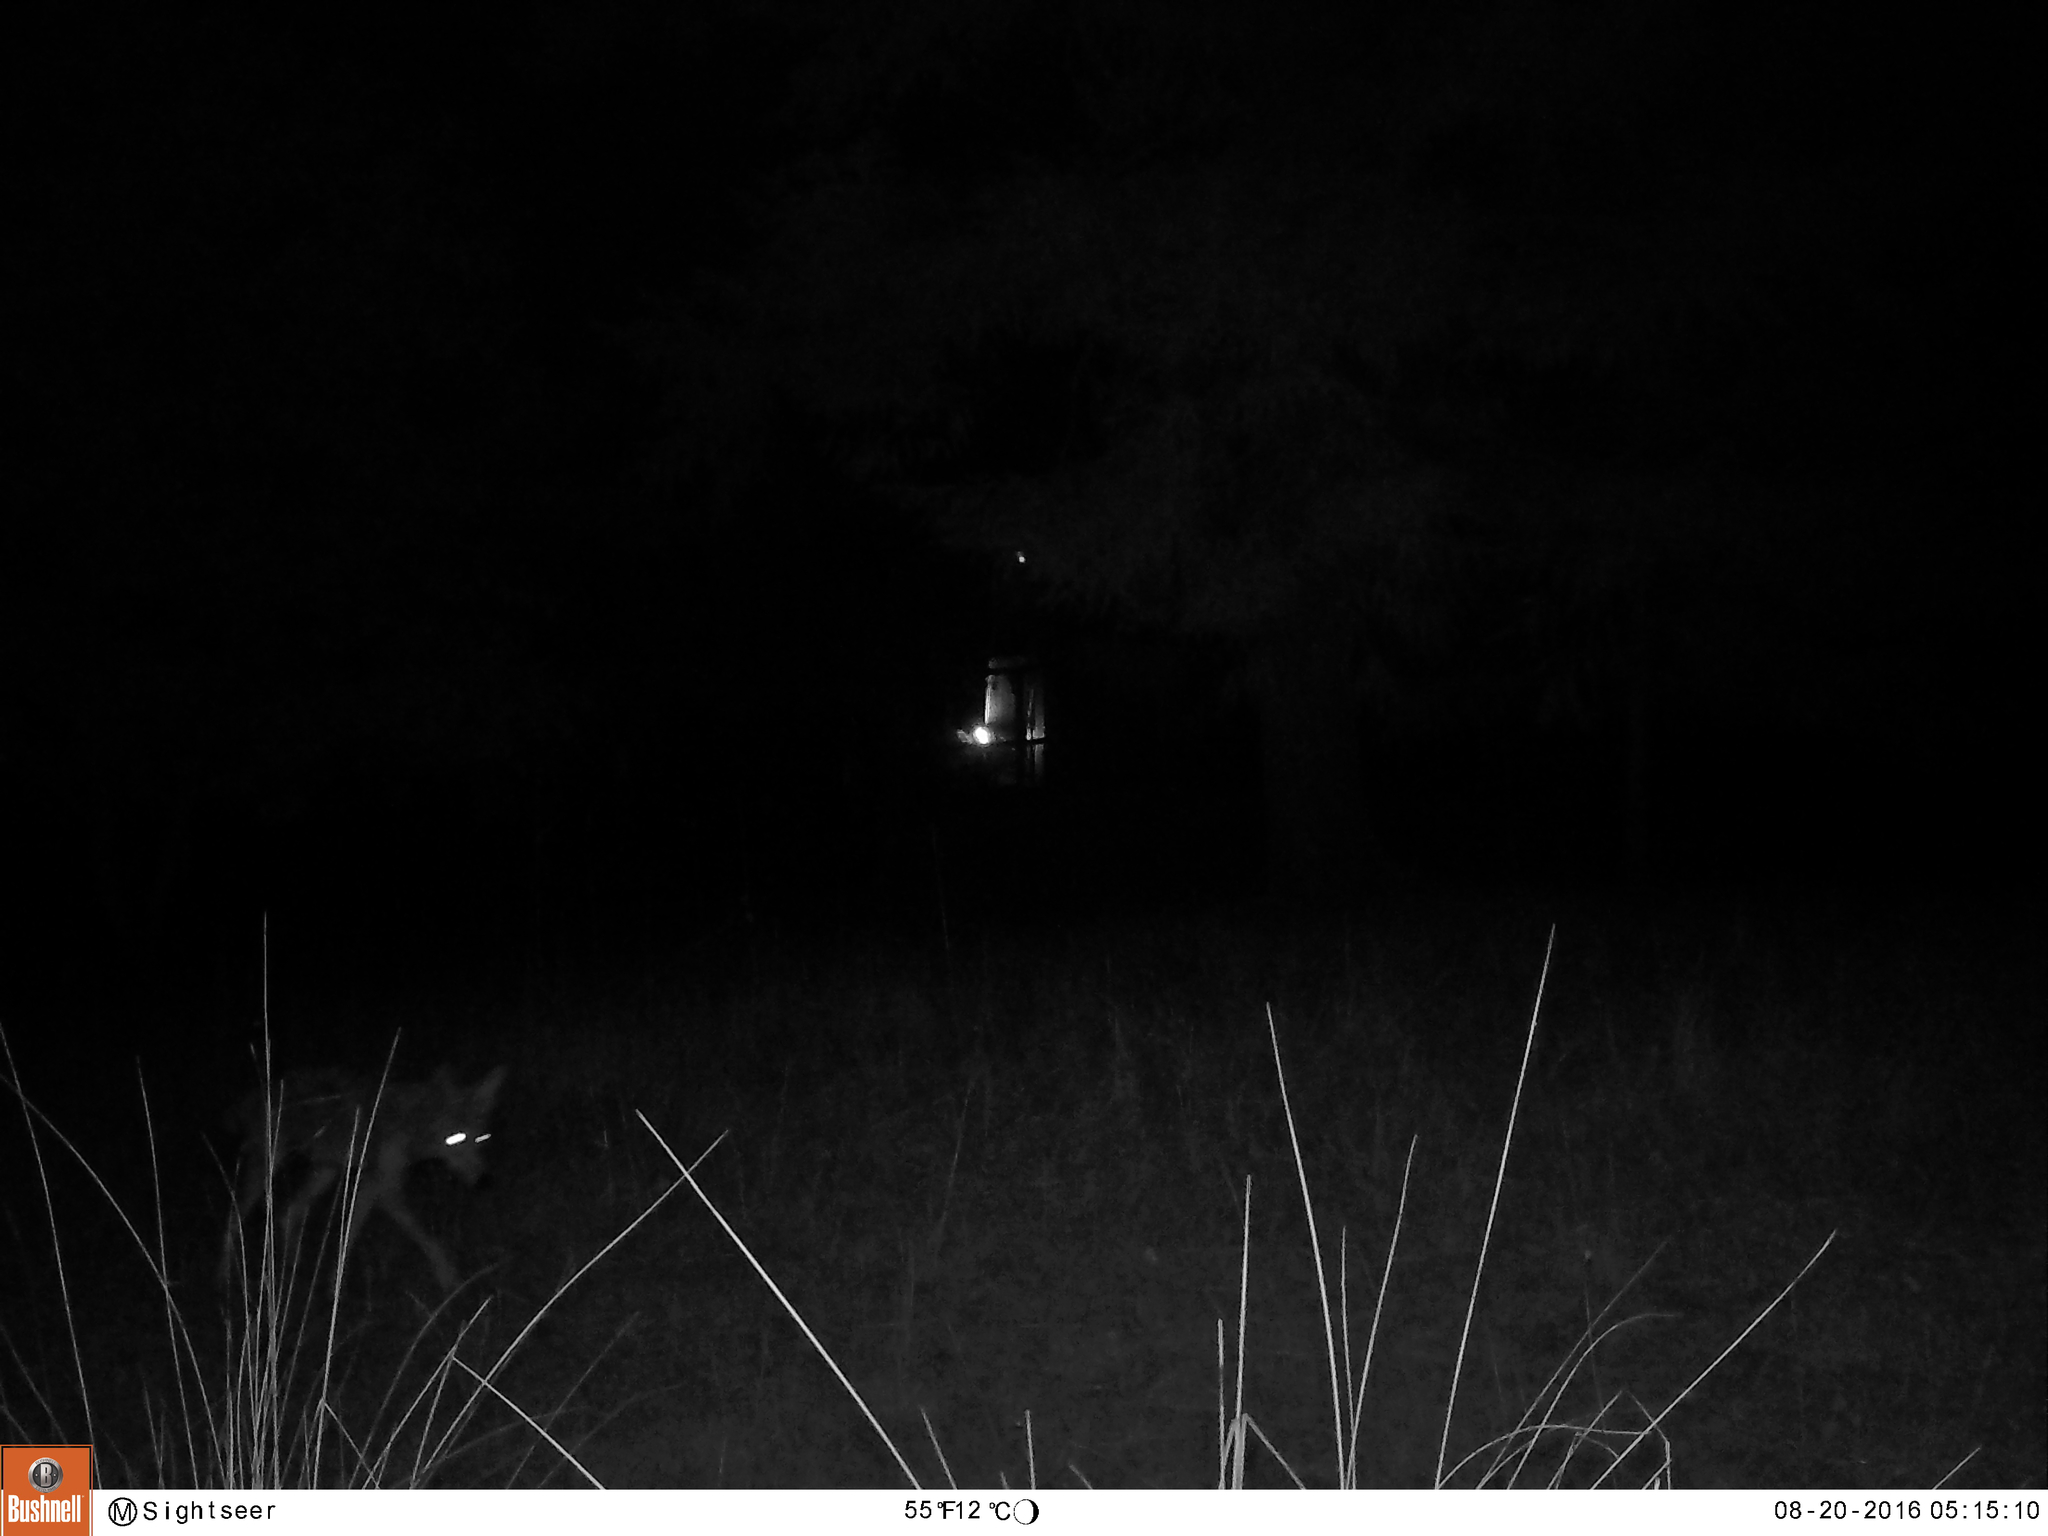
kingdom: Animalia
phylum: Chordata
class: Mammalia
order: Carnivora
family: Canidae
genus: Canis
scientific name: Canis latrans
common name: Coyote
